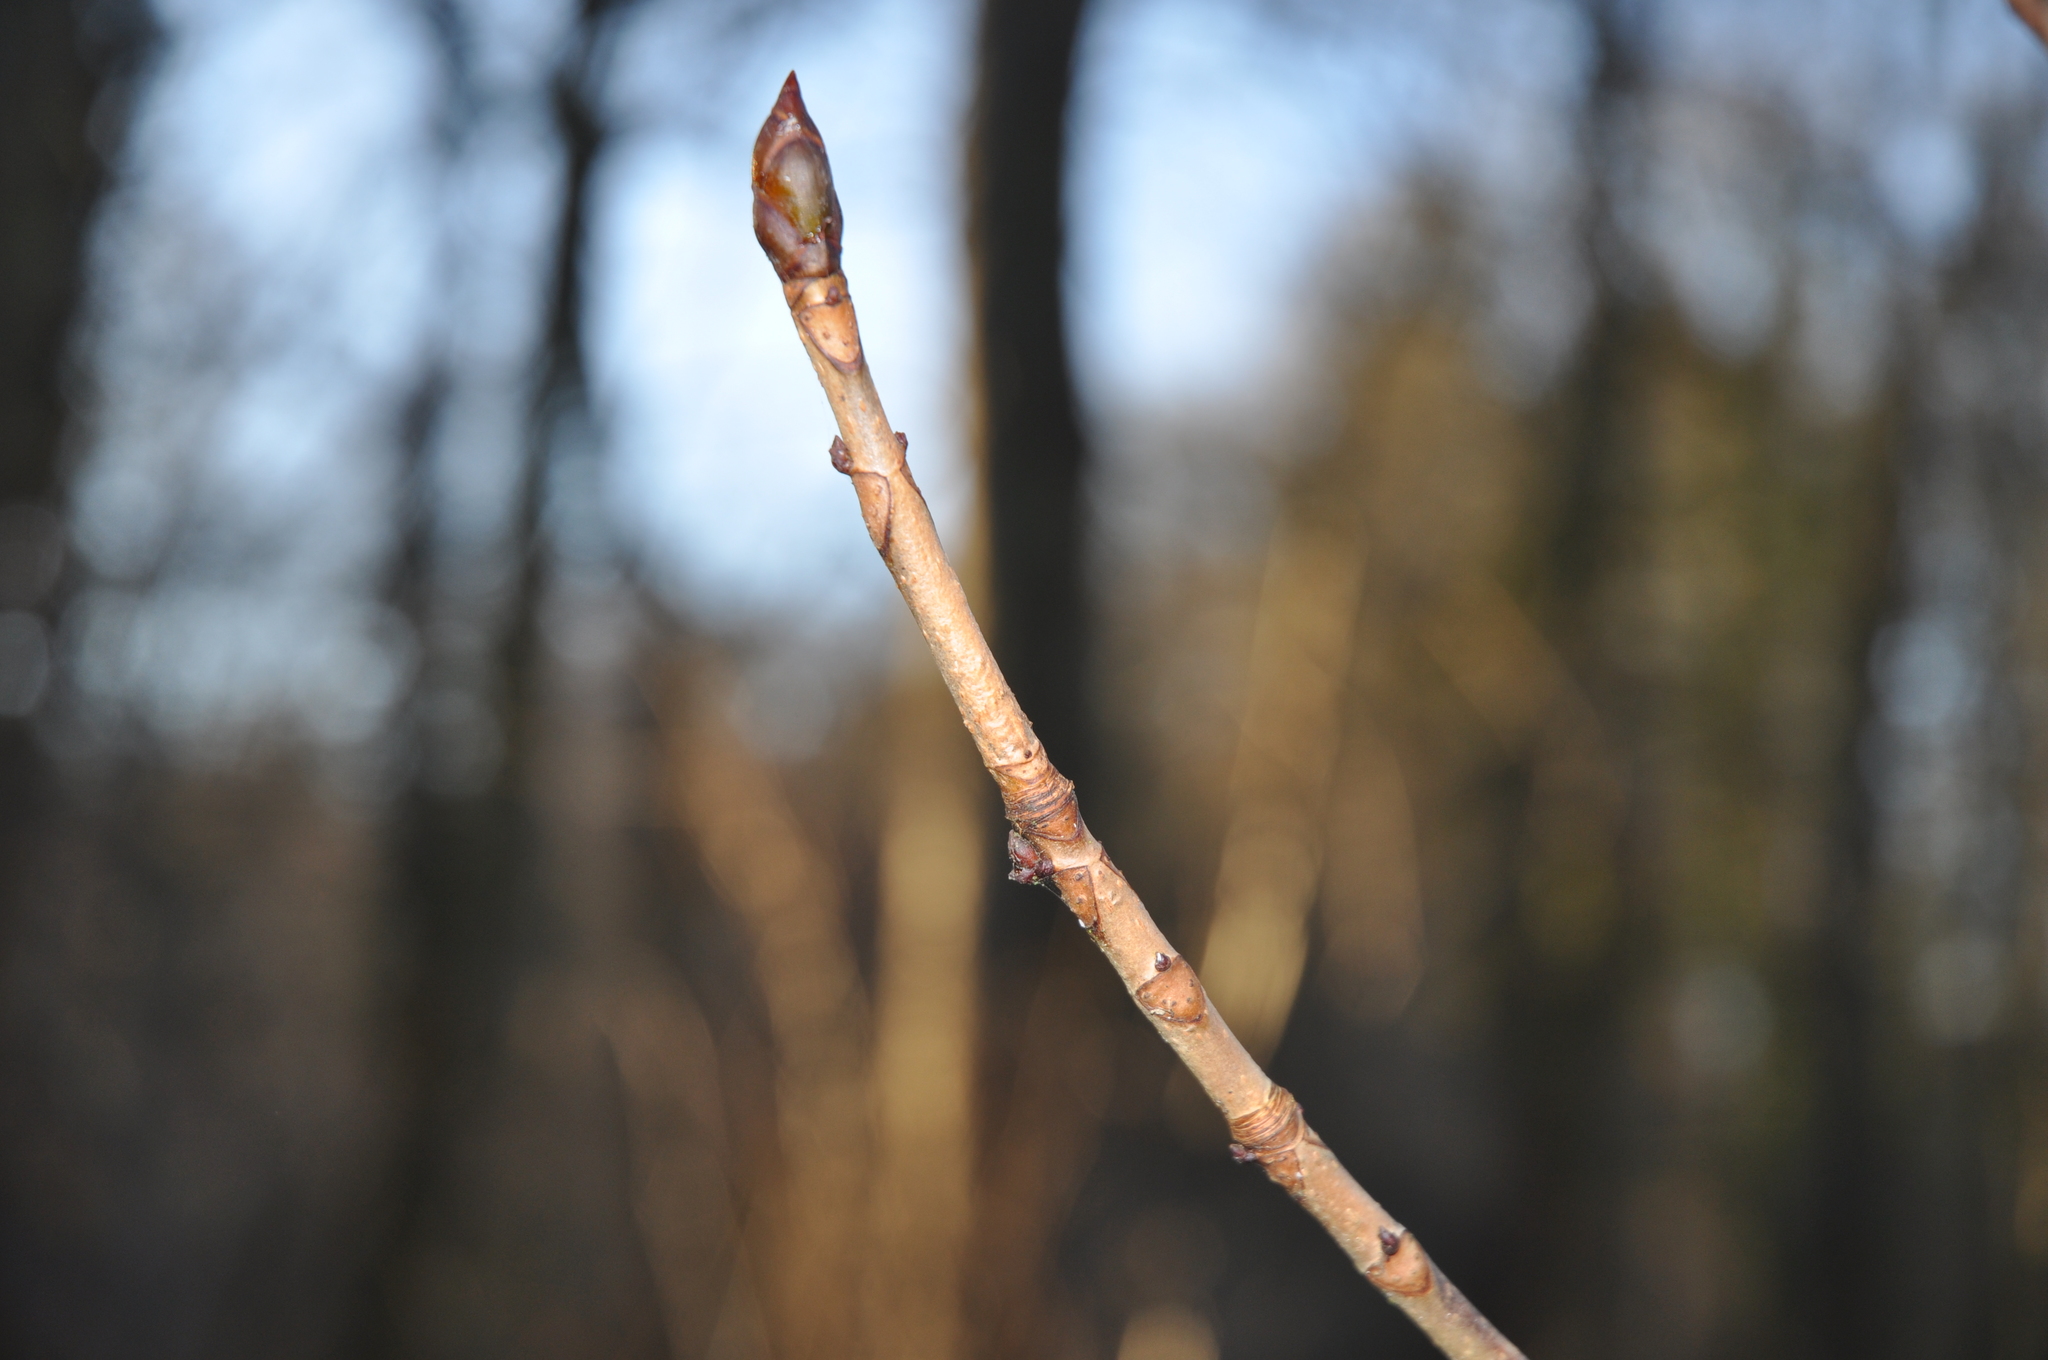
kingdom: Plantae
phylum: Tracheophyta
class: Magnoliopsida
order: Sapindales
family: Sapindaceae
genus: Aesculus
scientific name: Aesculus hippocastanum
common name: Horse-chestnut
